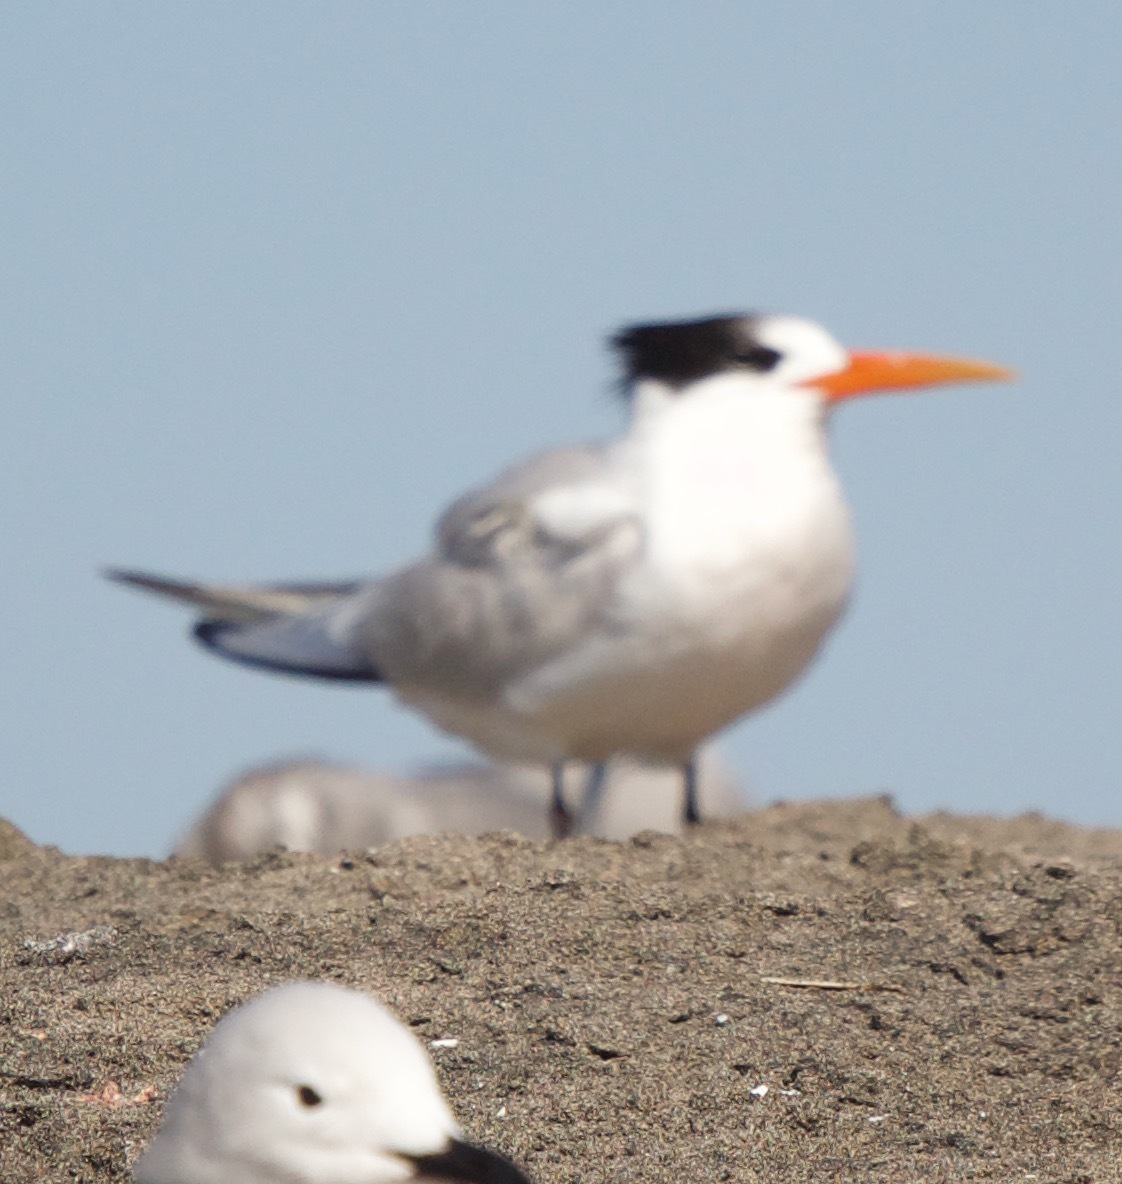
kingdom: Animalia
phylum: Chordata
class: Aves
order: Charadriiformes
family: Laridae
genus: Thalasseus
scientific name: Thalasseus elegans
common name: Elegant tern
